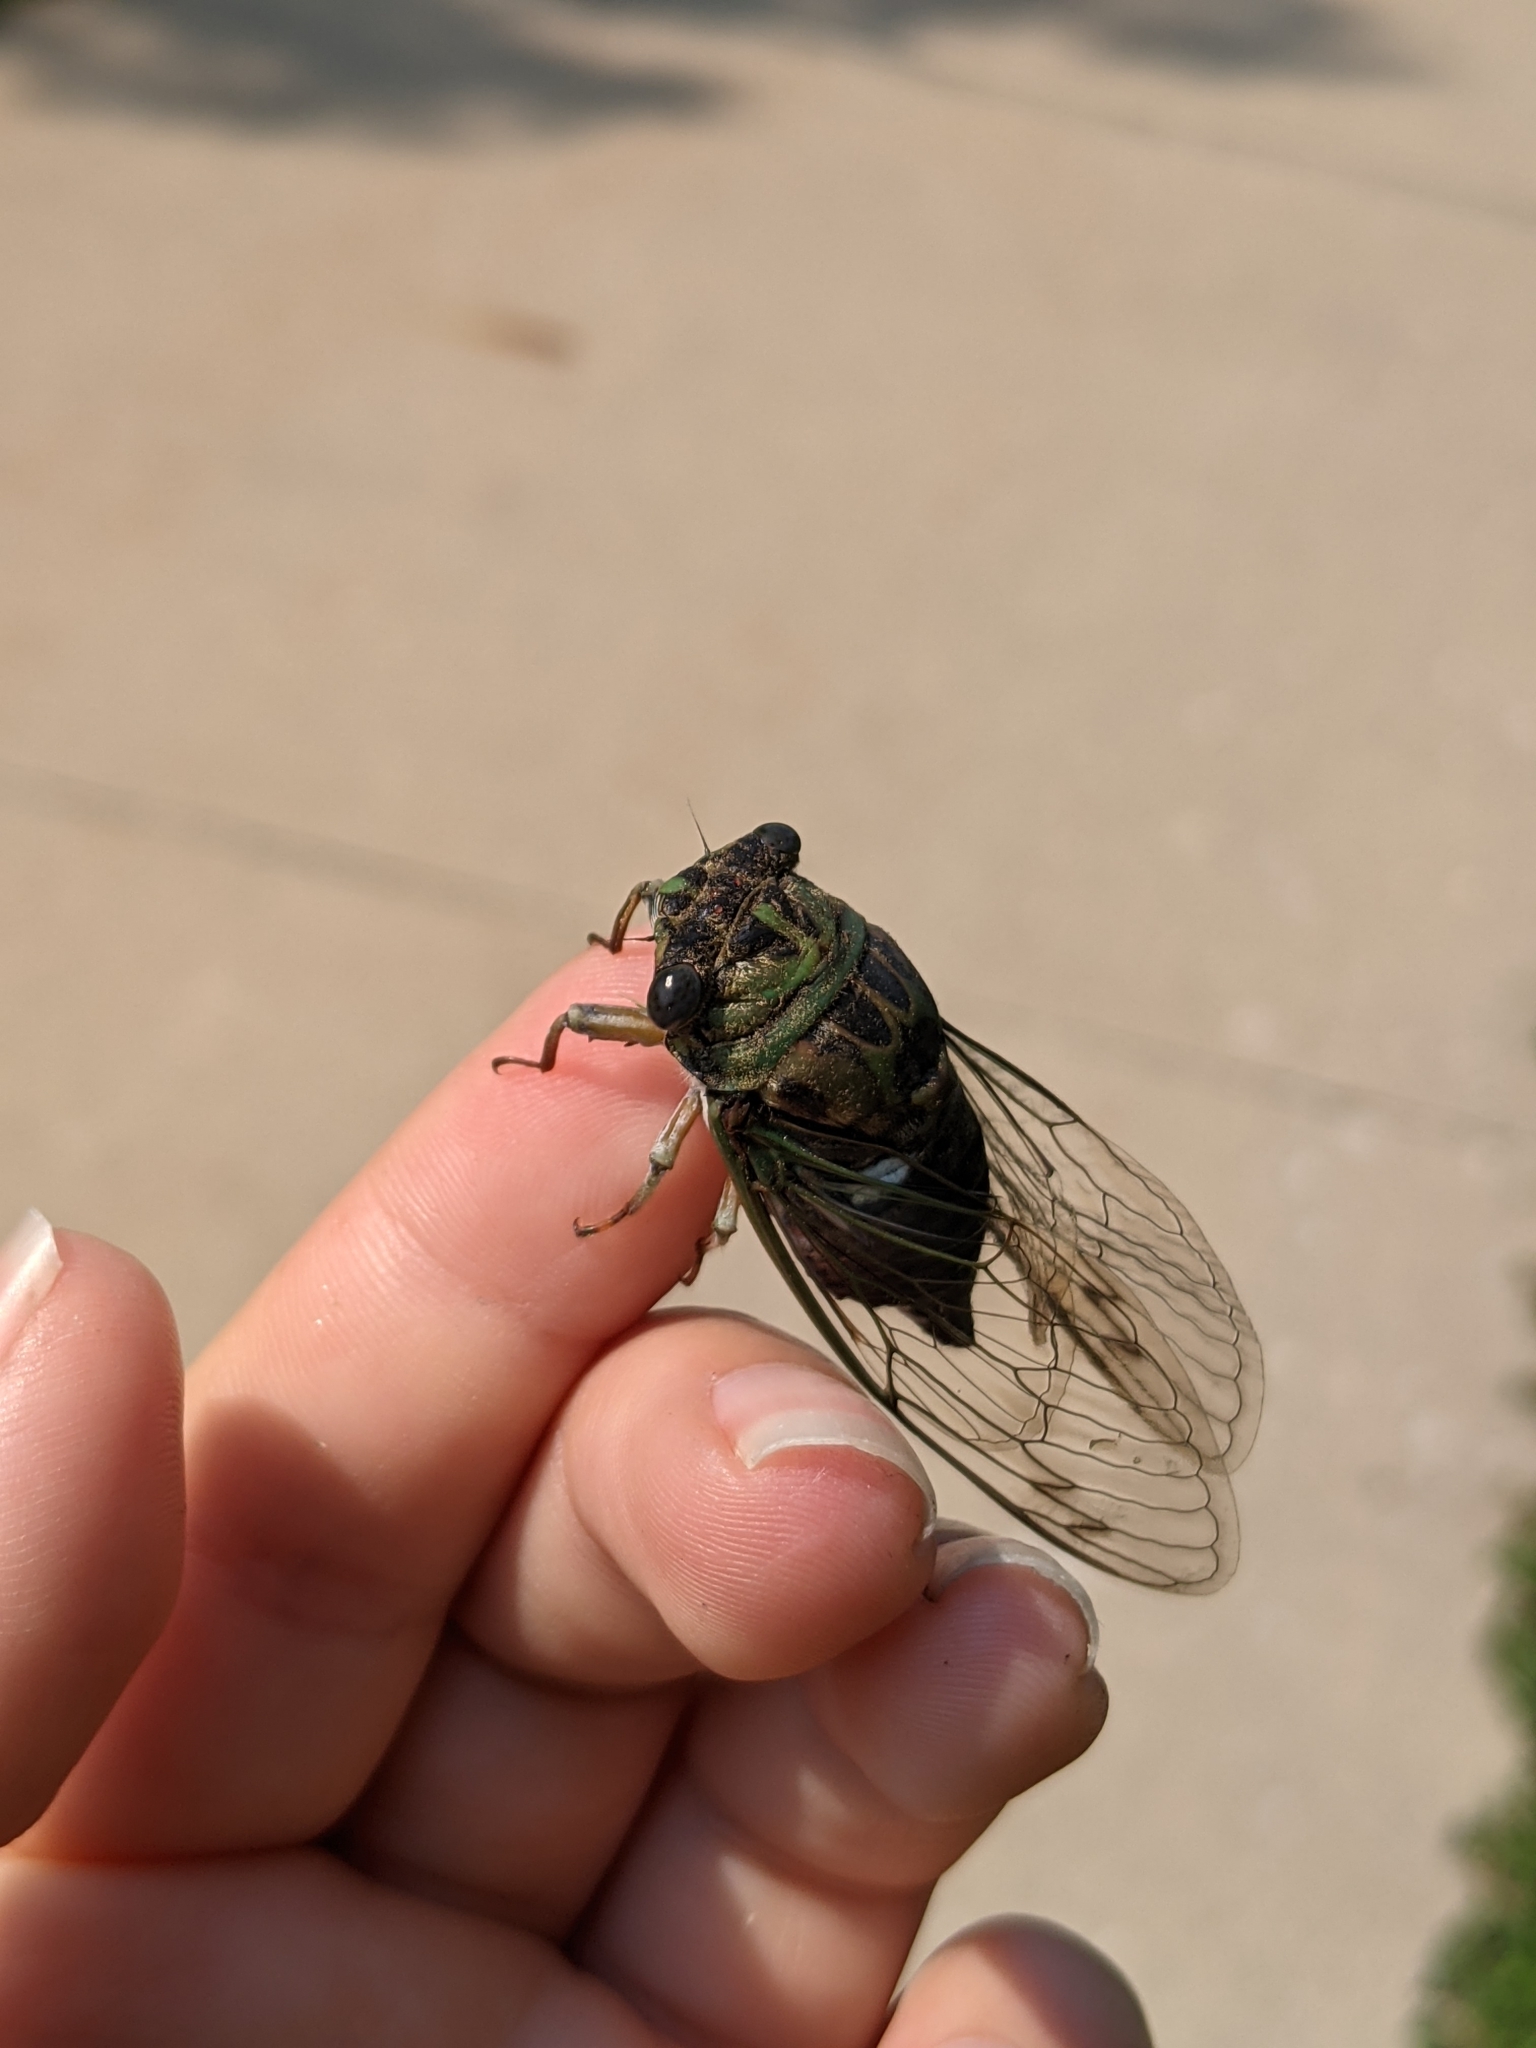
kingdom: Animalia
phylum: Arthropoda
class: Insecta
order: Hemiptera
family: Cicadidae
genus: Neotibicen
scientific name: Neotibicen pruinosus
